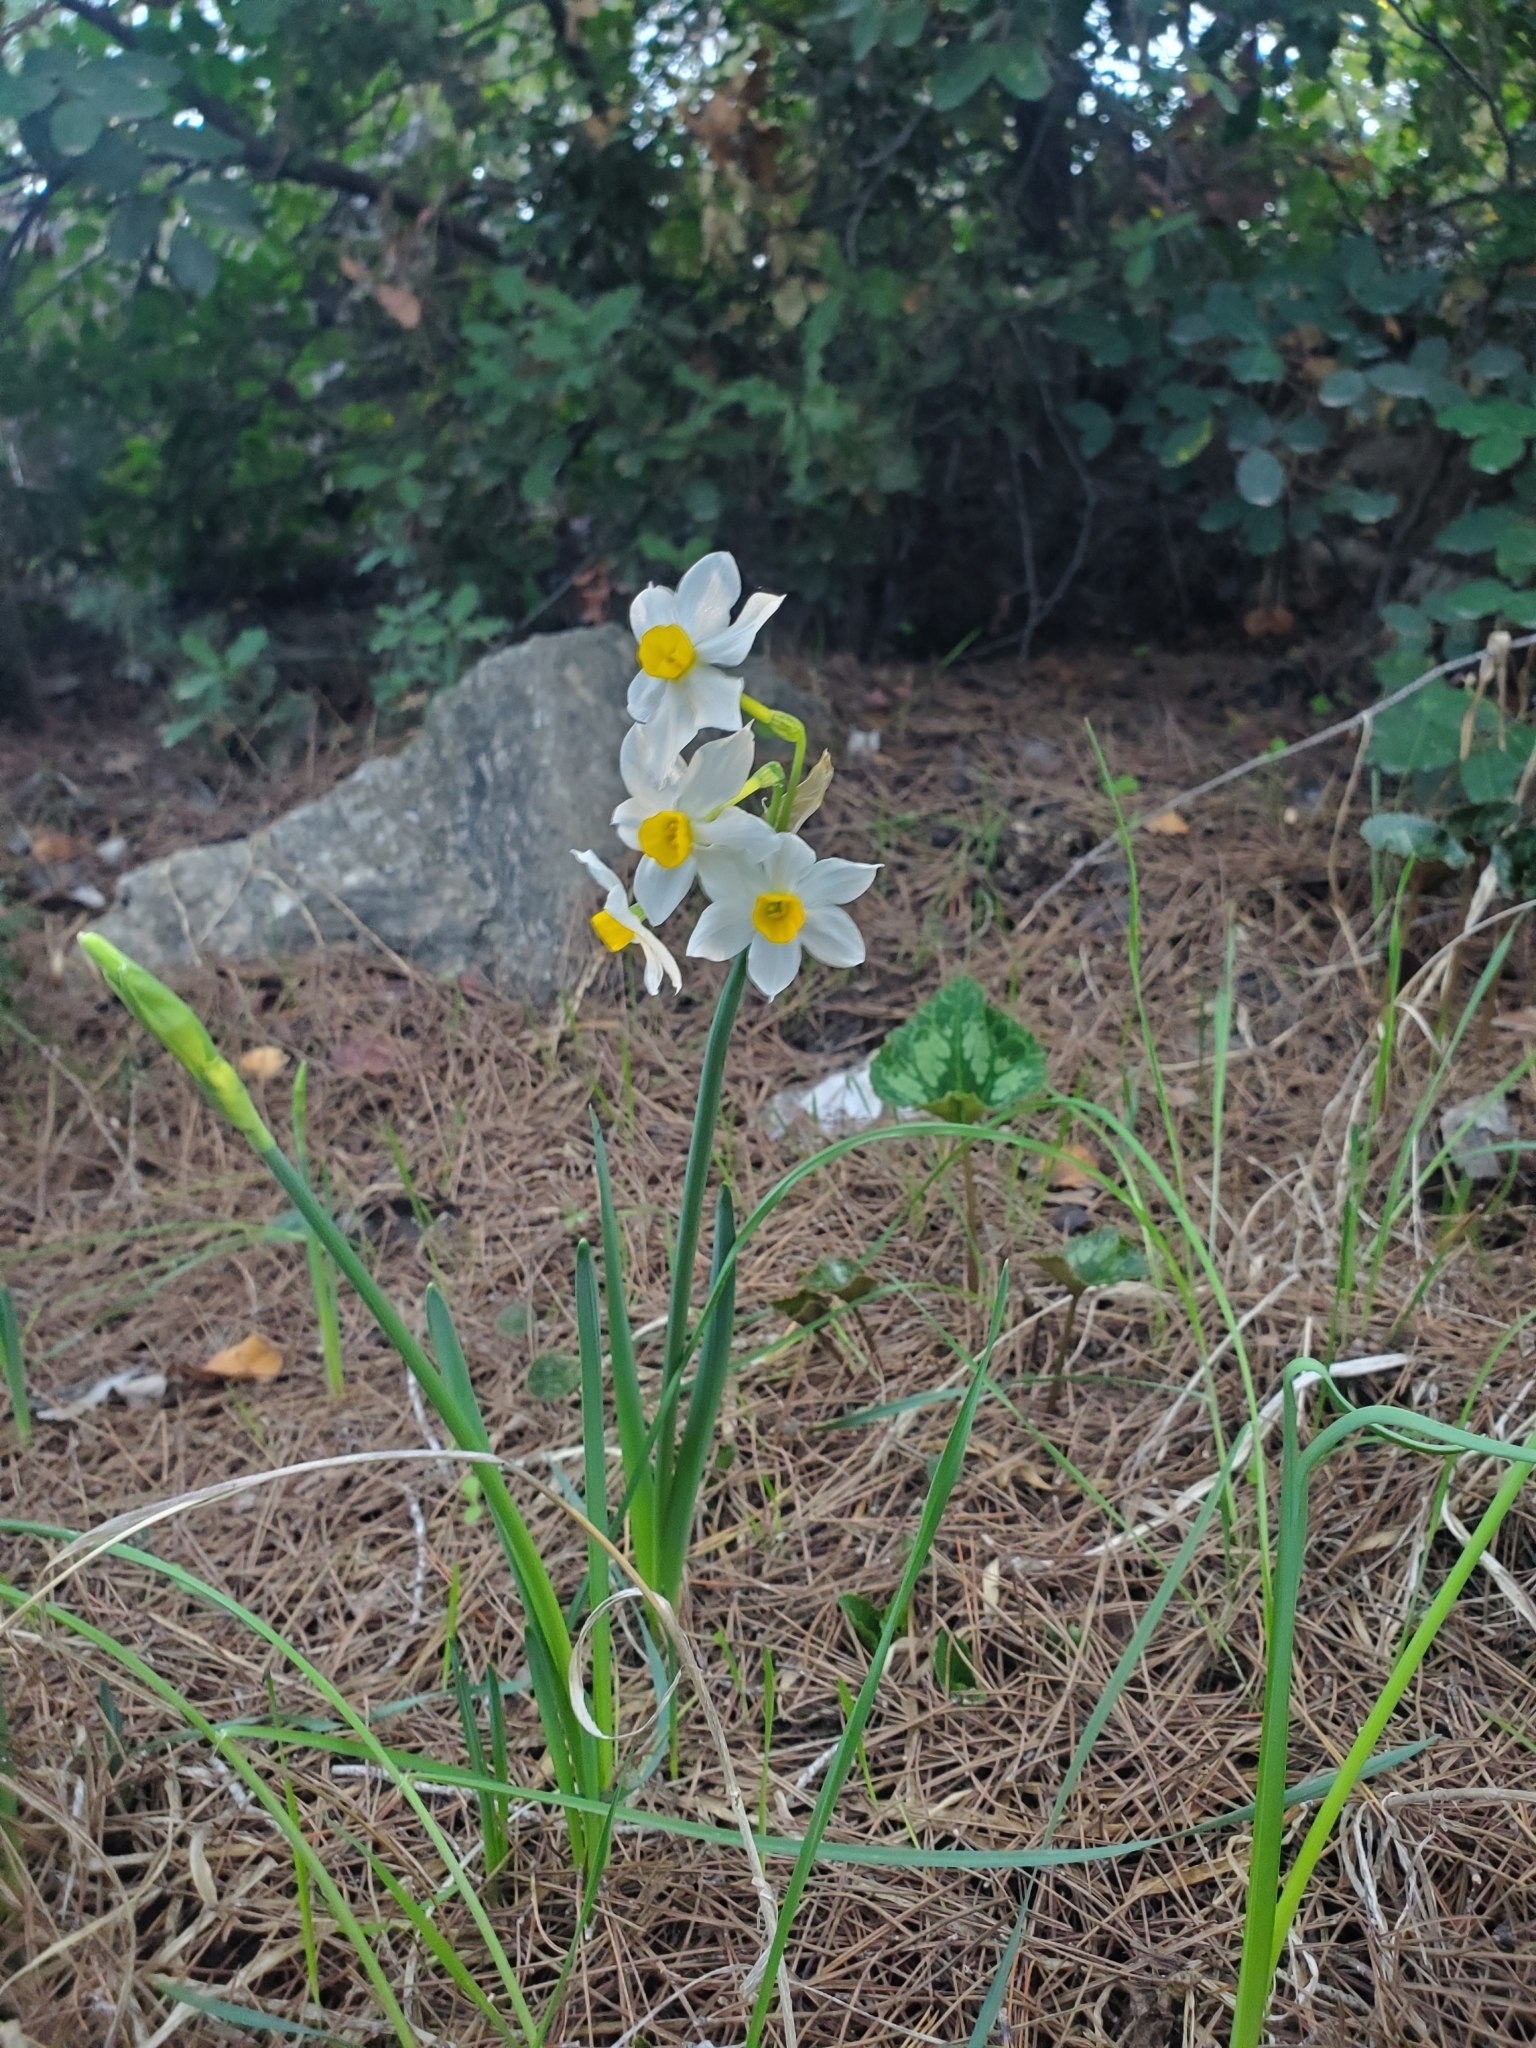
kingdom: Plantae
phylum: Tracheophyta
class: Liliopsida
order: Asparagales
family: Amaryllidaceae
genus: Narcissus
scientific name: Narcissus tazetta
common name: Bunch-flowered daffodil
